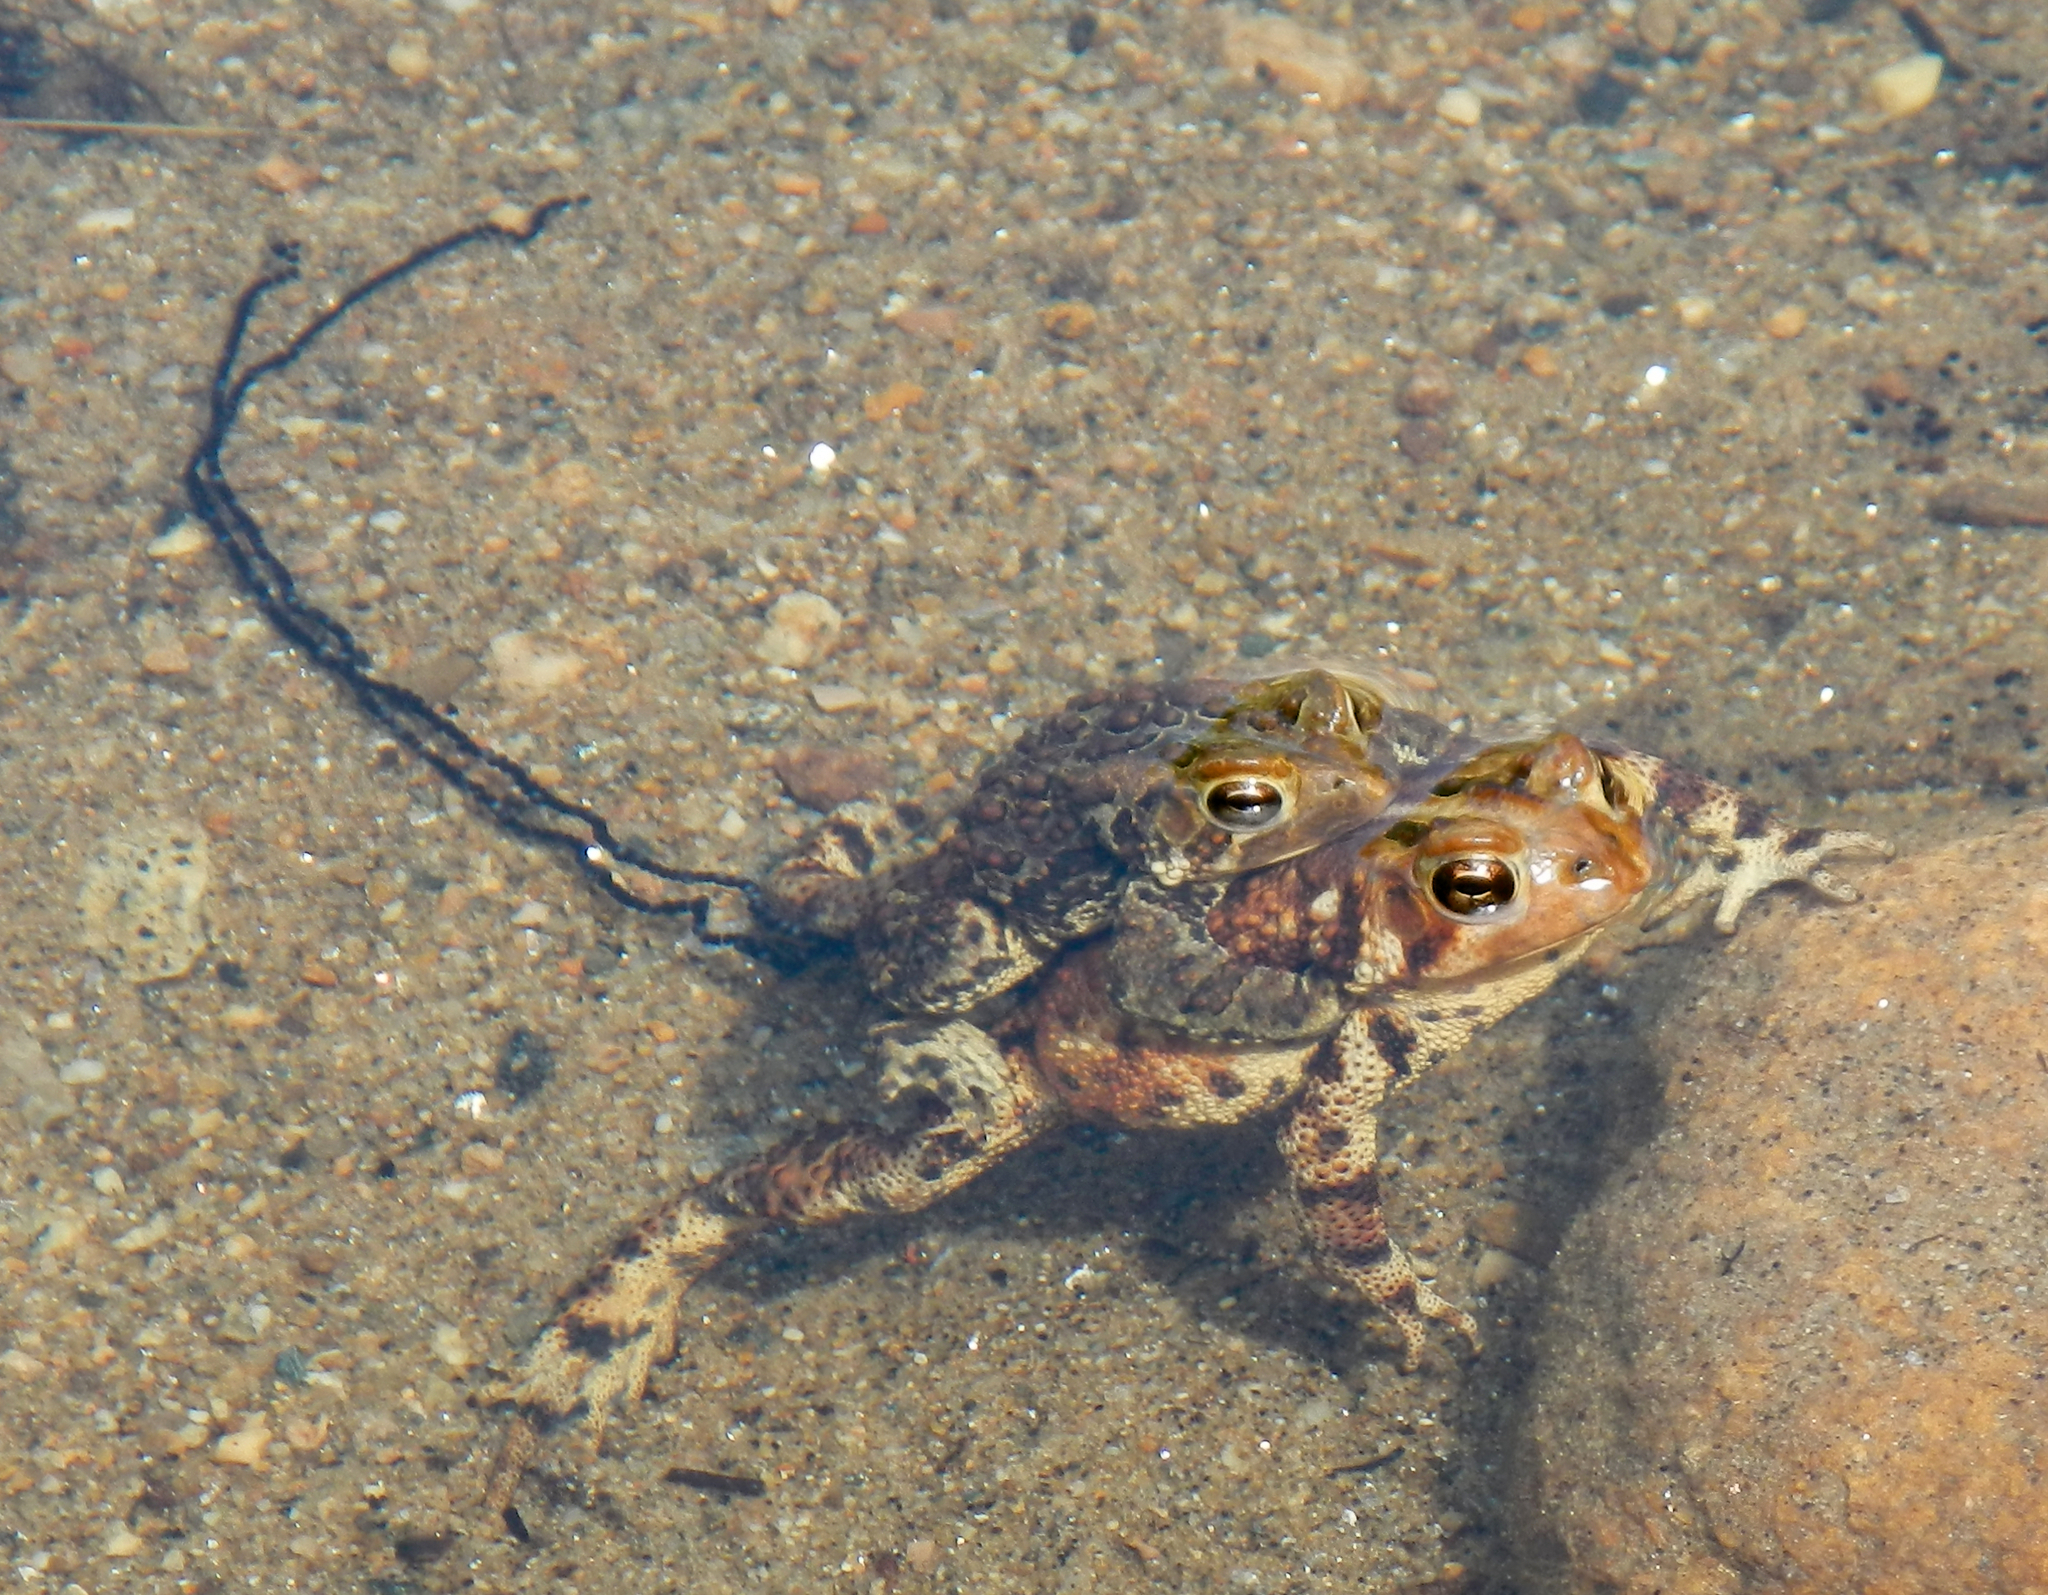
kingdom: Animalia
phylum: Chordata
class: Amphibia
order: Anura
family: Bufonidae
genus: Anaxyrus
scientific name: Anaxyrus americanus
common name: American toad
